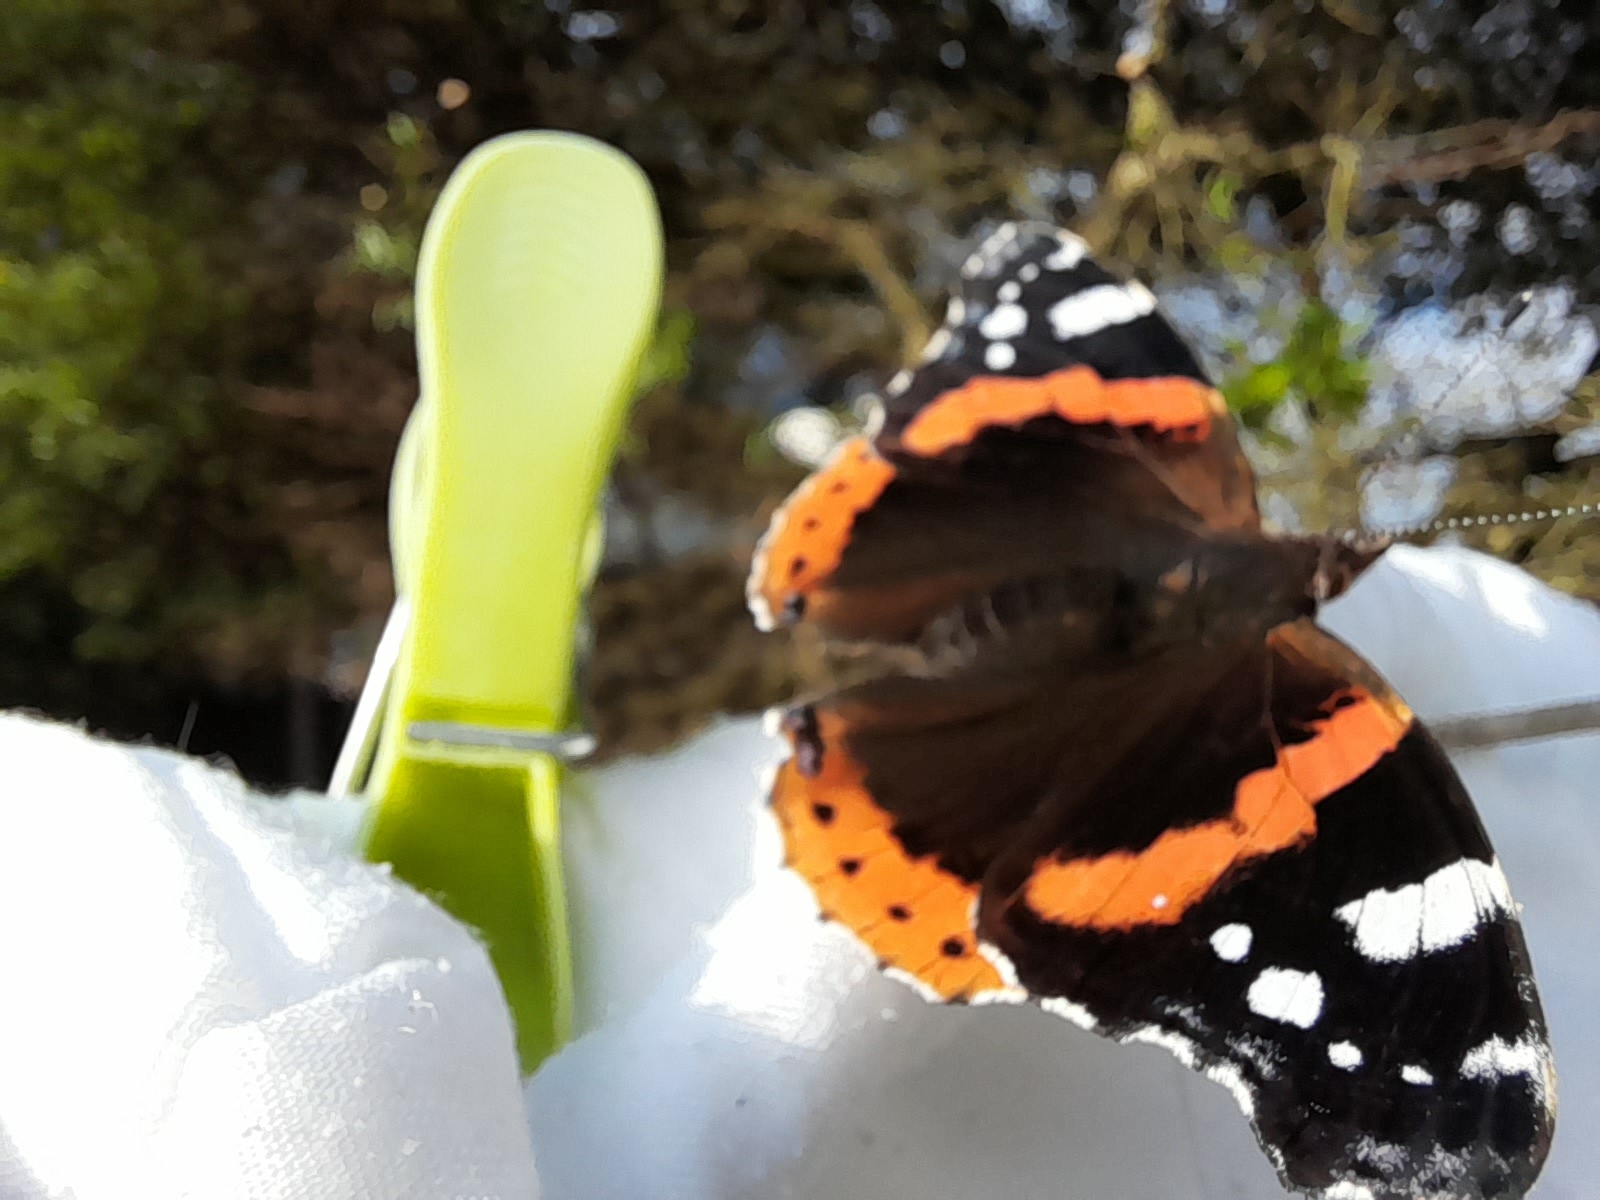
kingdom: Animalia
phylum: Arthropoda
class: Insecta
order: Lepidoptera
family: Nymphalidae
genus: Vanessa
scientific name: Vanessa atalanta
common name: Red admiral
